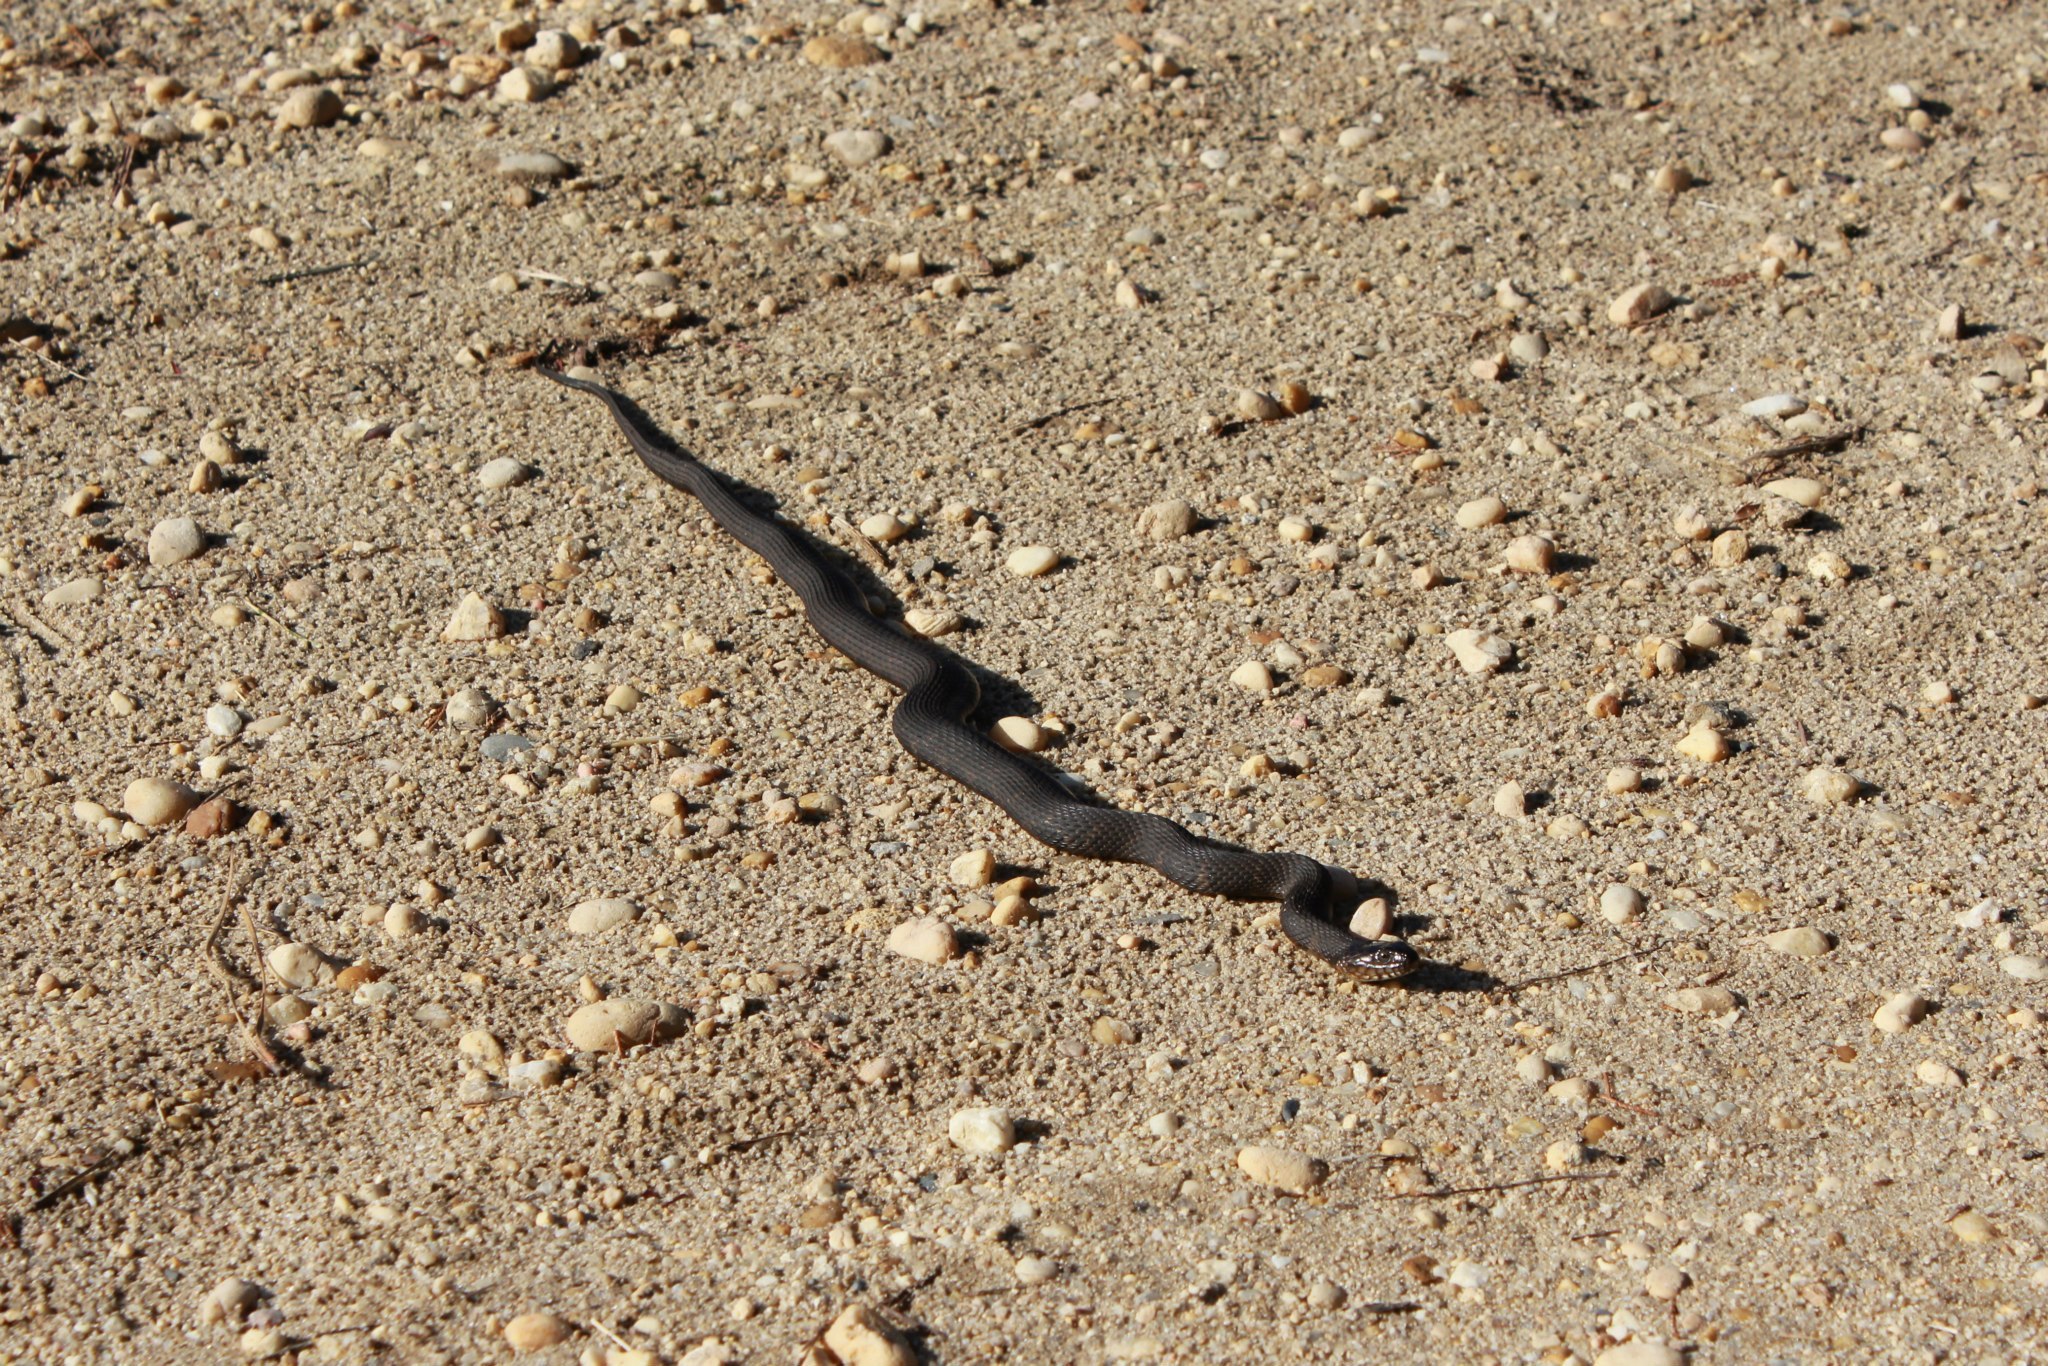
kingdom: Animalia
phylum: Chordata
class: Squamata
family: Colubridae
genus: Nerodia
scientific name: Nerodia sipedon
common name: Northern water snake
